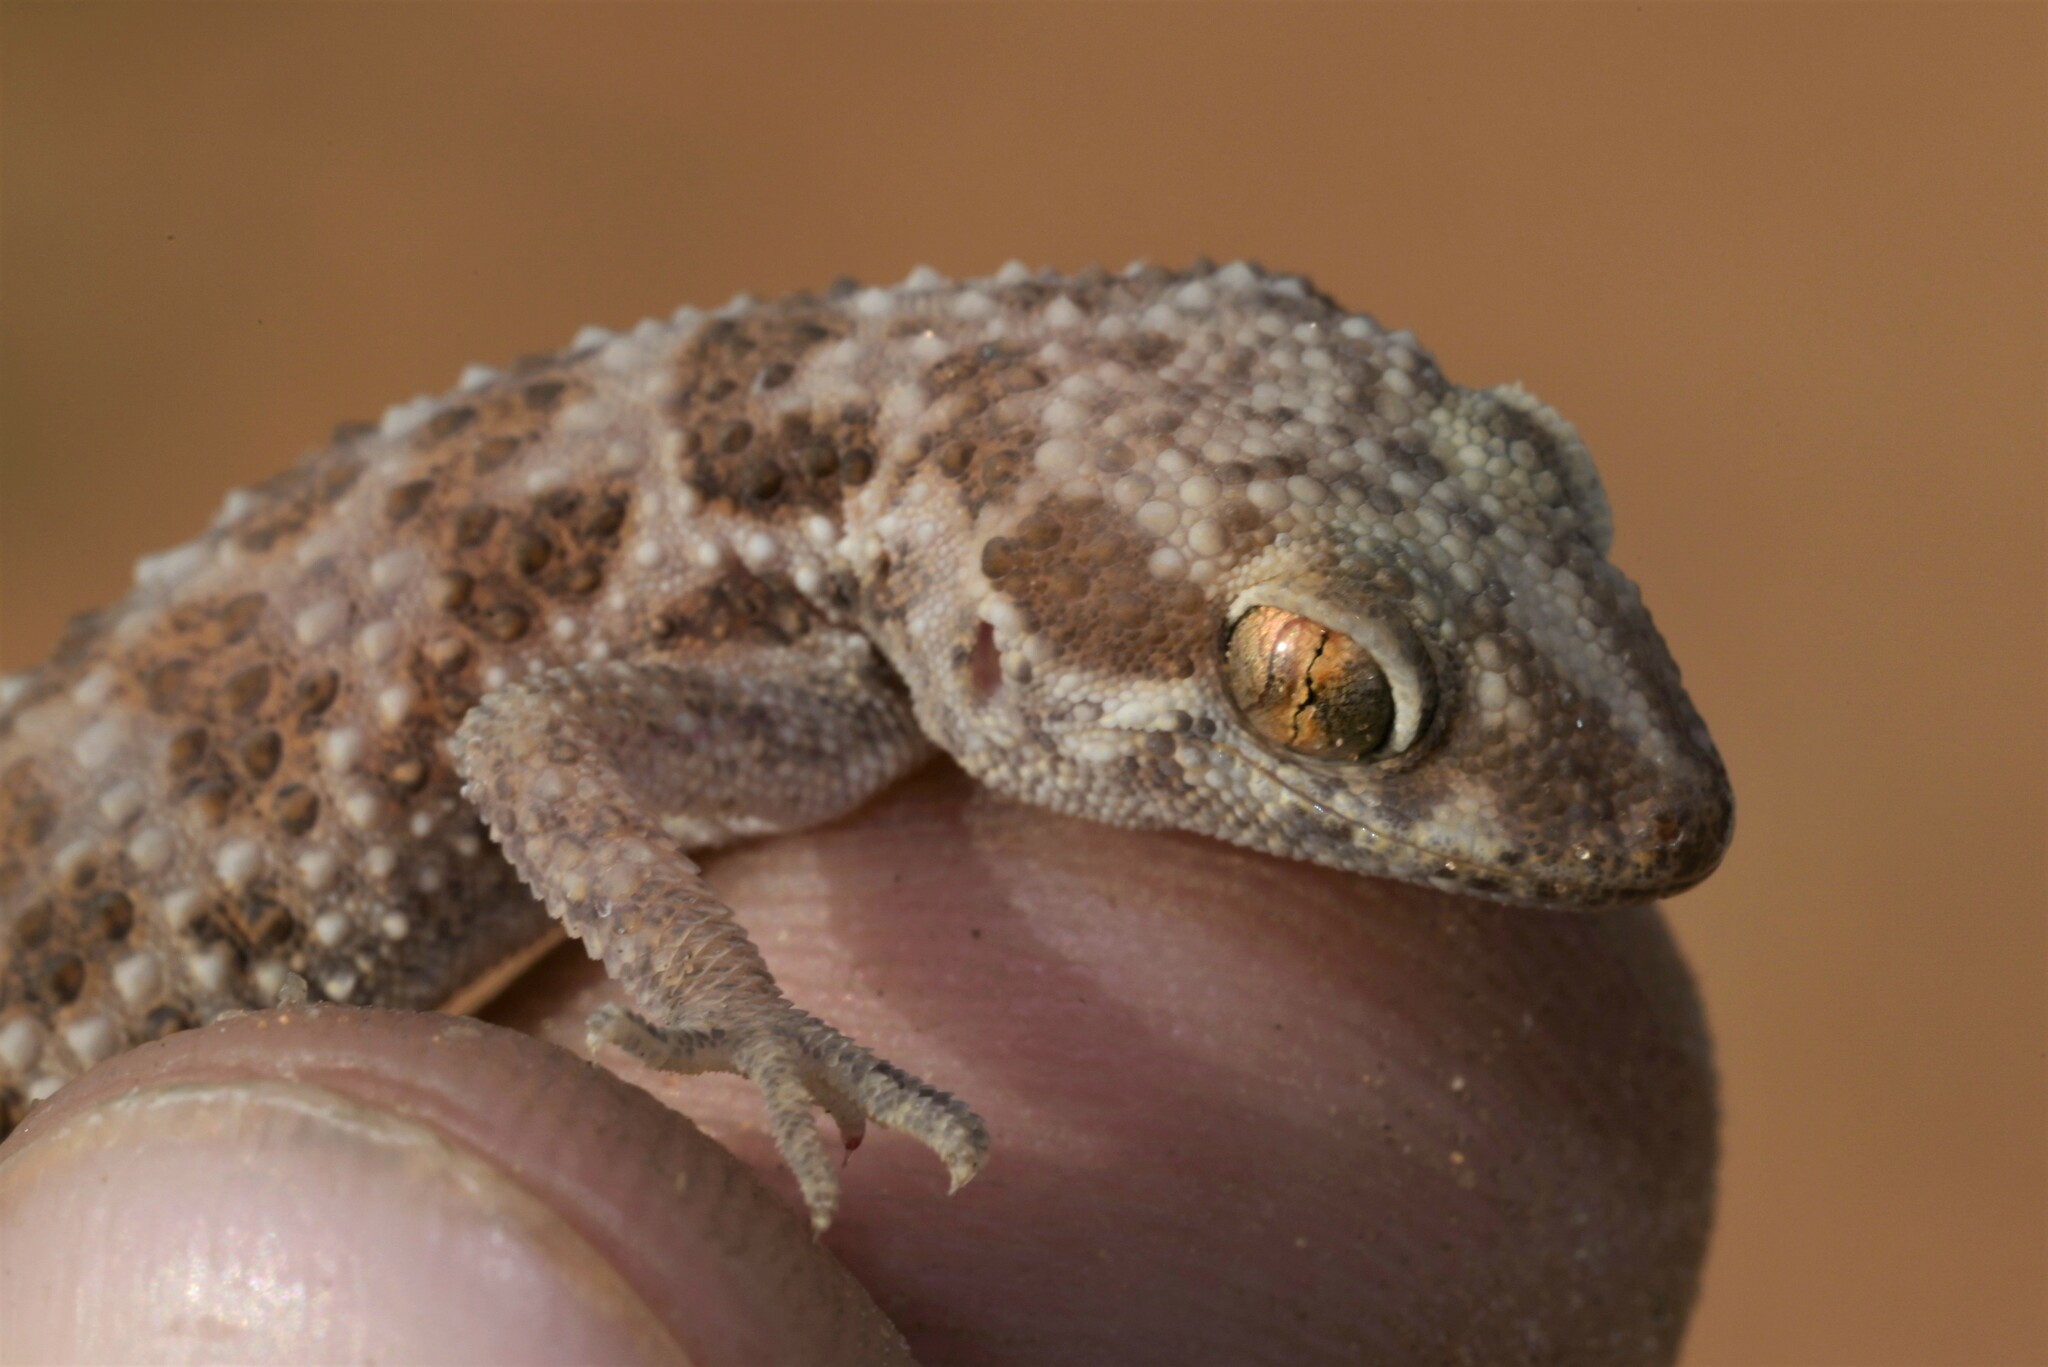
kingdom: Animalia
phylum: Chordata
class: Squamata
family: Gekkonidae
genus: Bunopus
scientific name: Bunopus tuberculatus
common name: Southern tuberculated gecko
